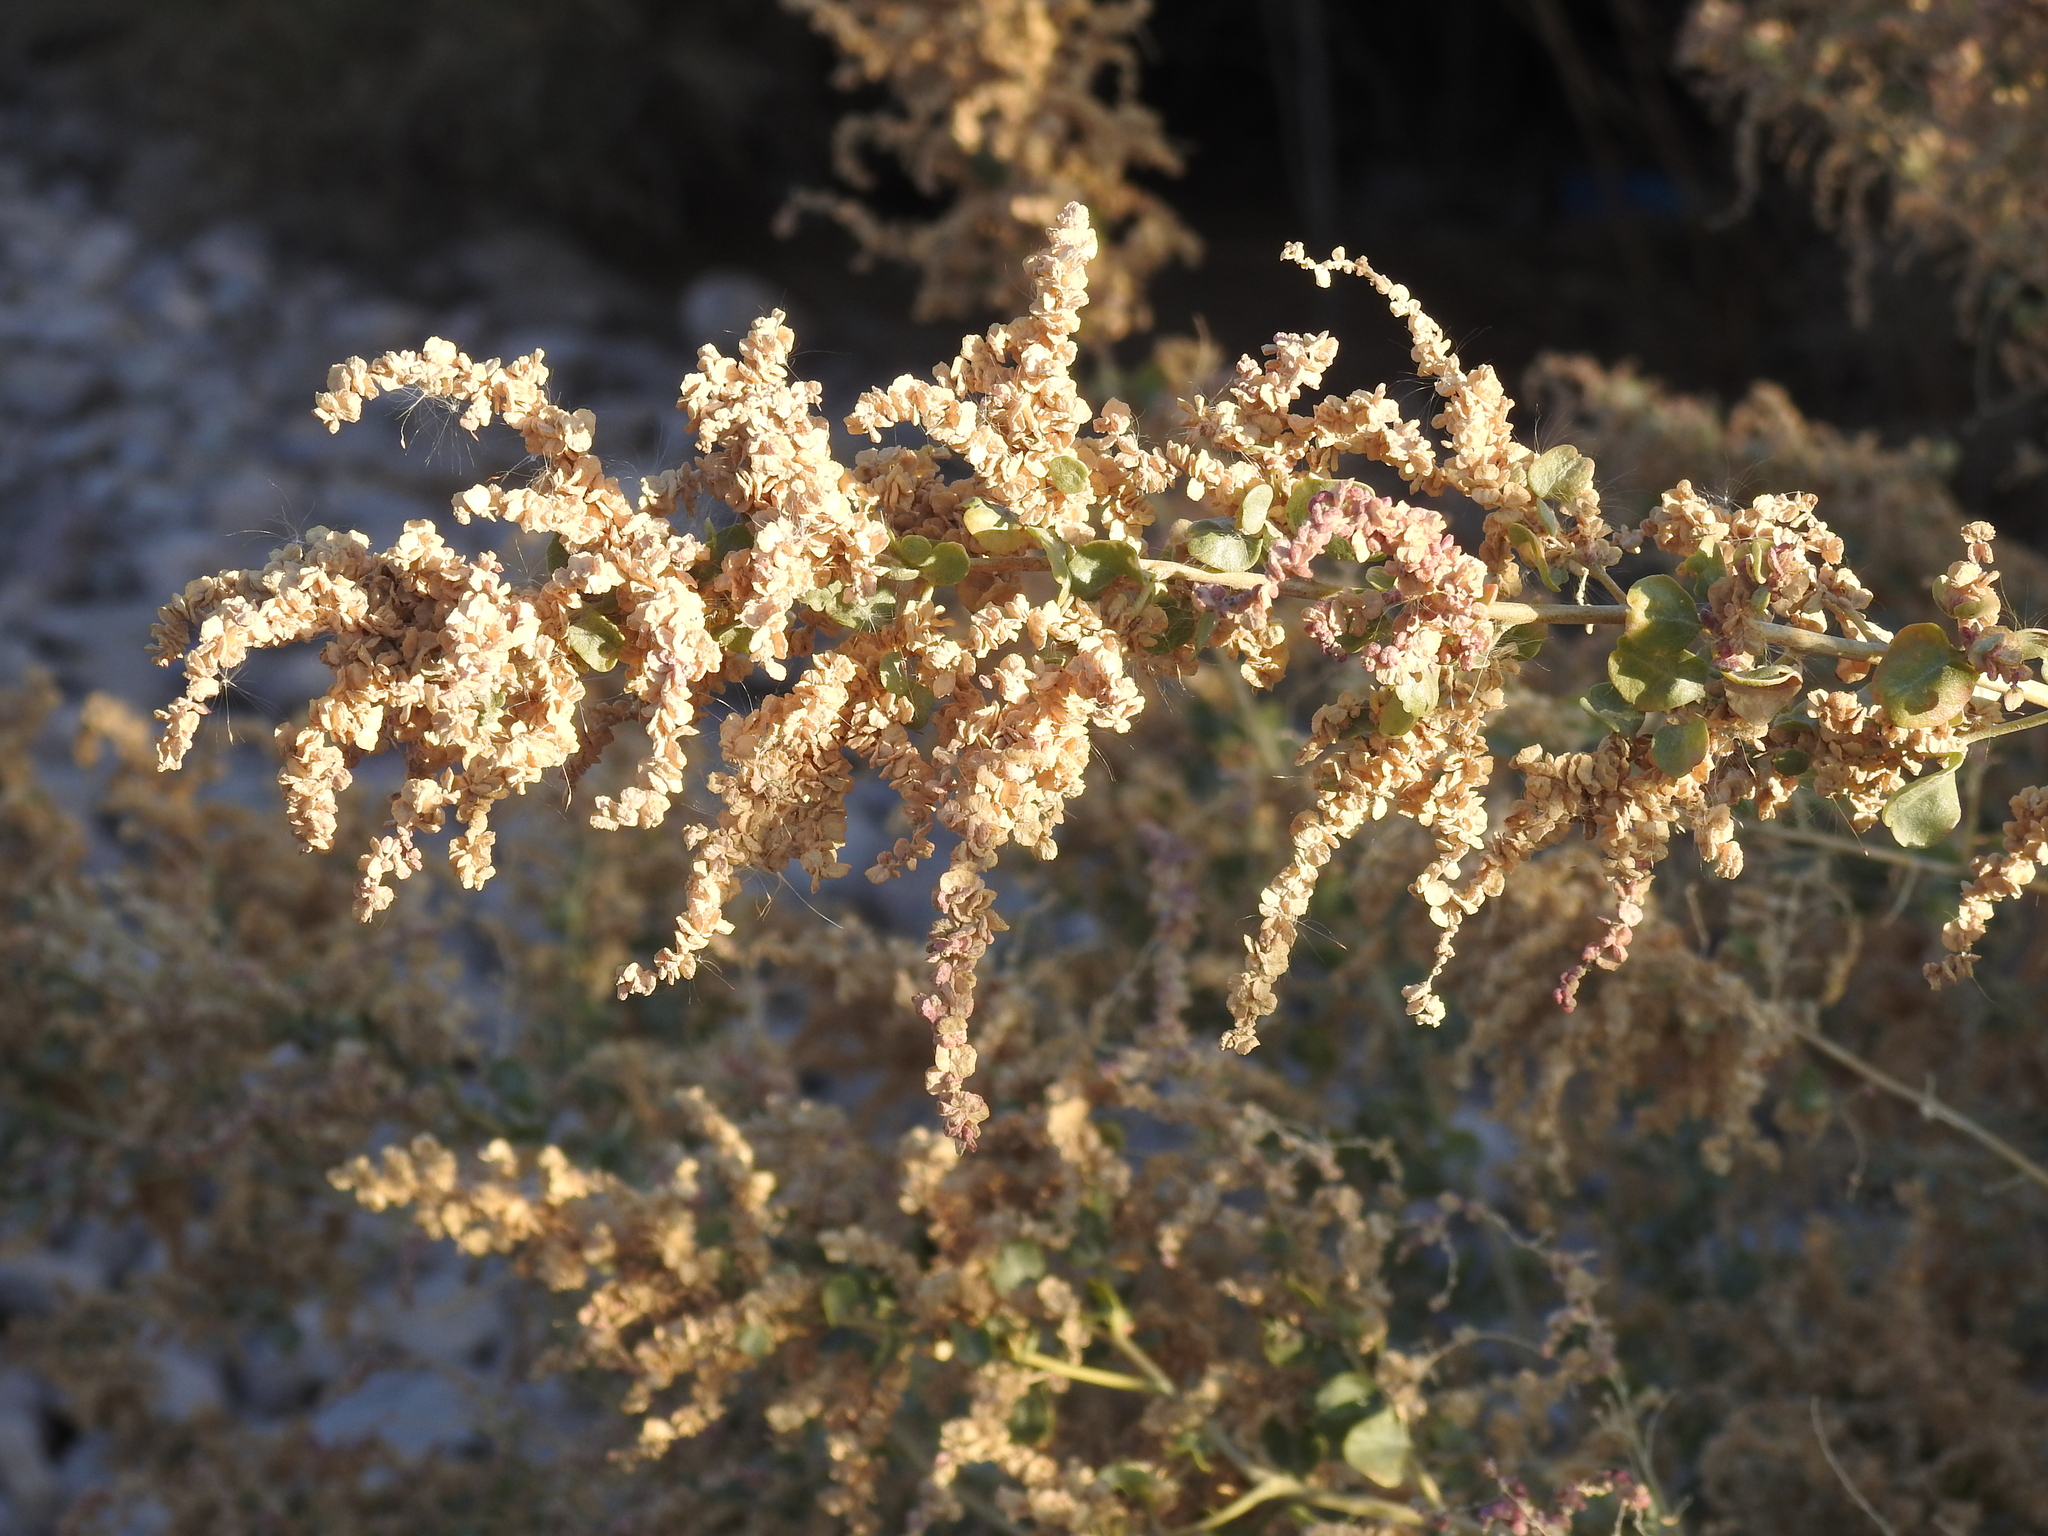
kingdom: Plantae
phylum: Tracheophyta
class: Magnoliopsida
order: Caryophyllales
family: Amaranthaceae
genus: Atriplex
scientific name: Atriplex lentiformis
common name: Big saltbush
